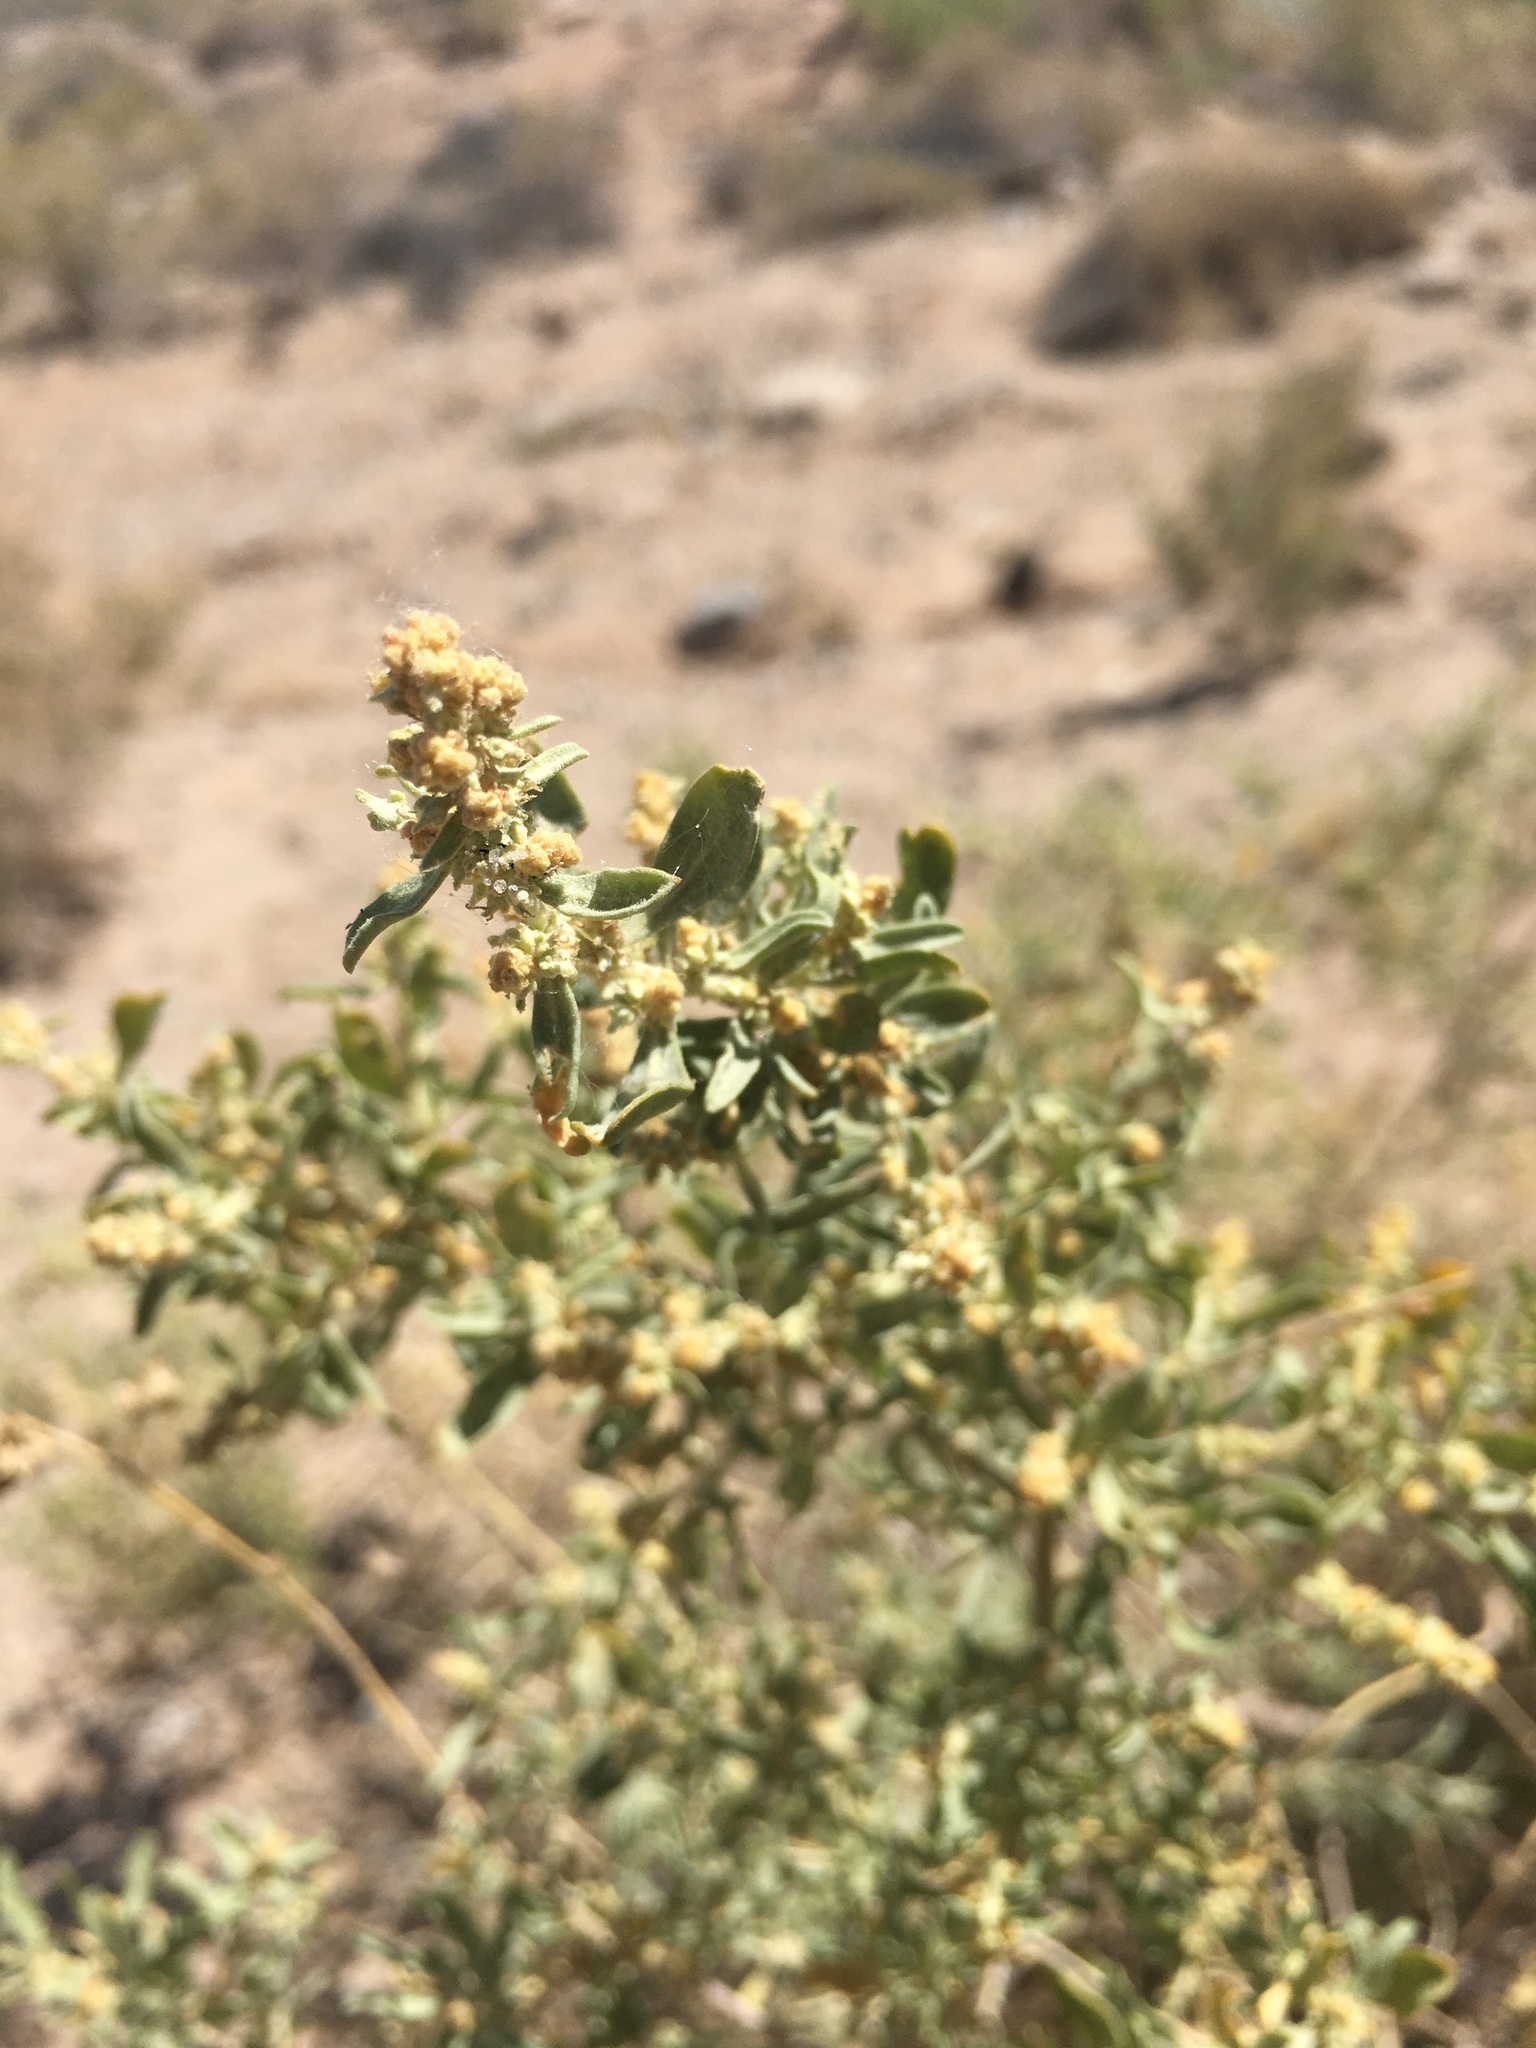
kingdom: Plantae
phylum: Tracheophyta
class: Magnoliopsida
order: Caryophyllales
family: Amaranthaceae
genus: Atriplex
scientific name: Atriplex canescens
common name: Four-wing saltbush
